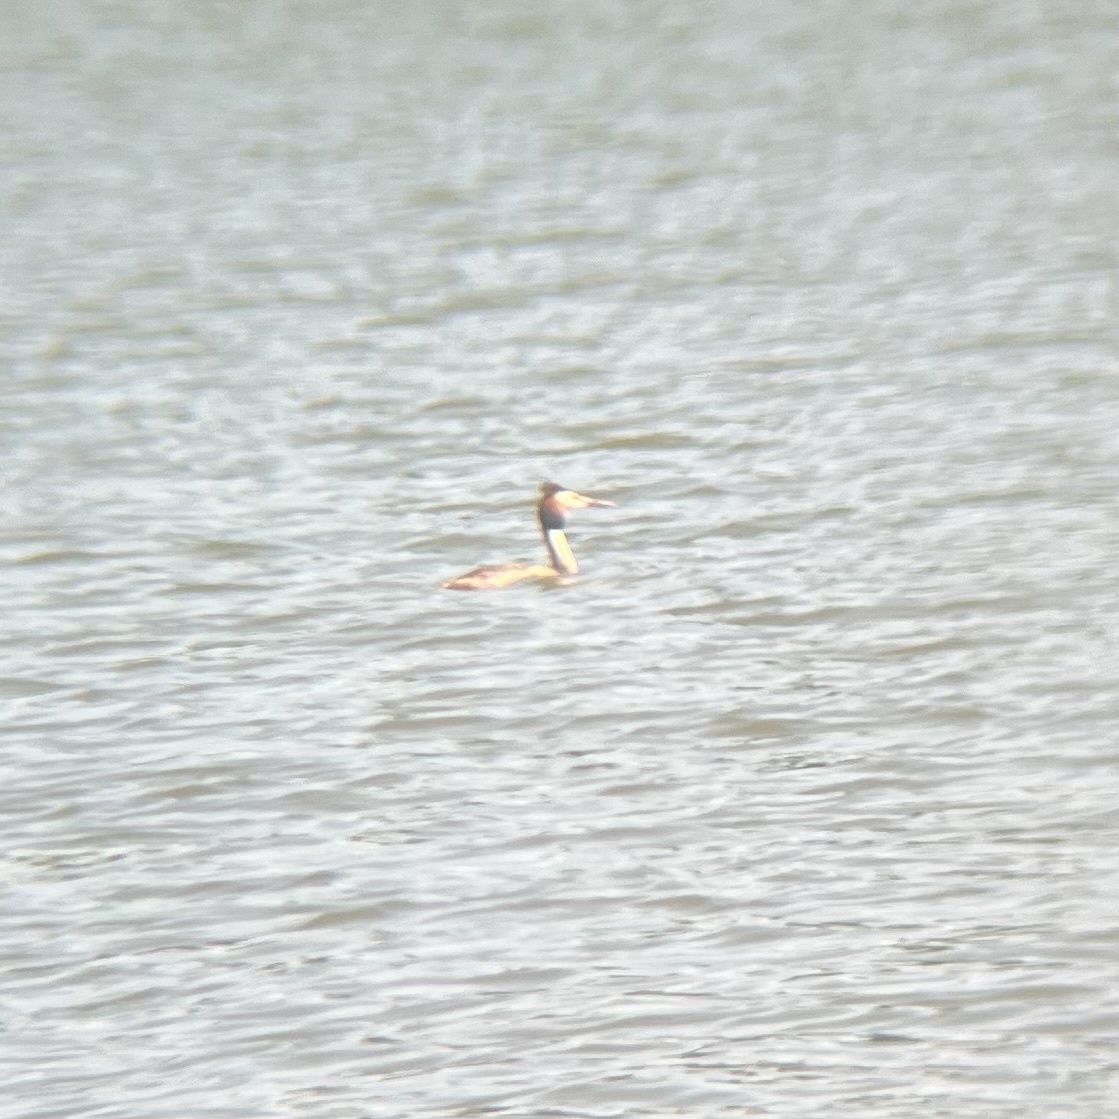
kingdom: Animalia
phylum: Chordata
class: Aves
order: Podicipediformes
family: Podicipedidae
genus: Podiceps
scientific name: Podiceps cristatus
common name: Great crested grebe
